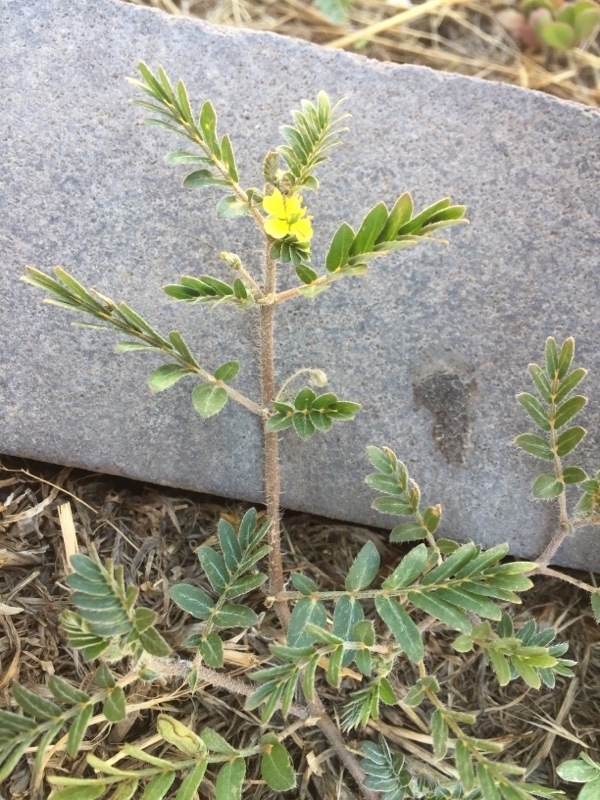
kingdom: Plantae
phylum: Tracheophyta
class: Magnoliopsida
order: Zygophyllales
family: Zygophyllaceae
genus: Tribulus
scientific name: Tribulus terrestris
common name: Puncturevine
